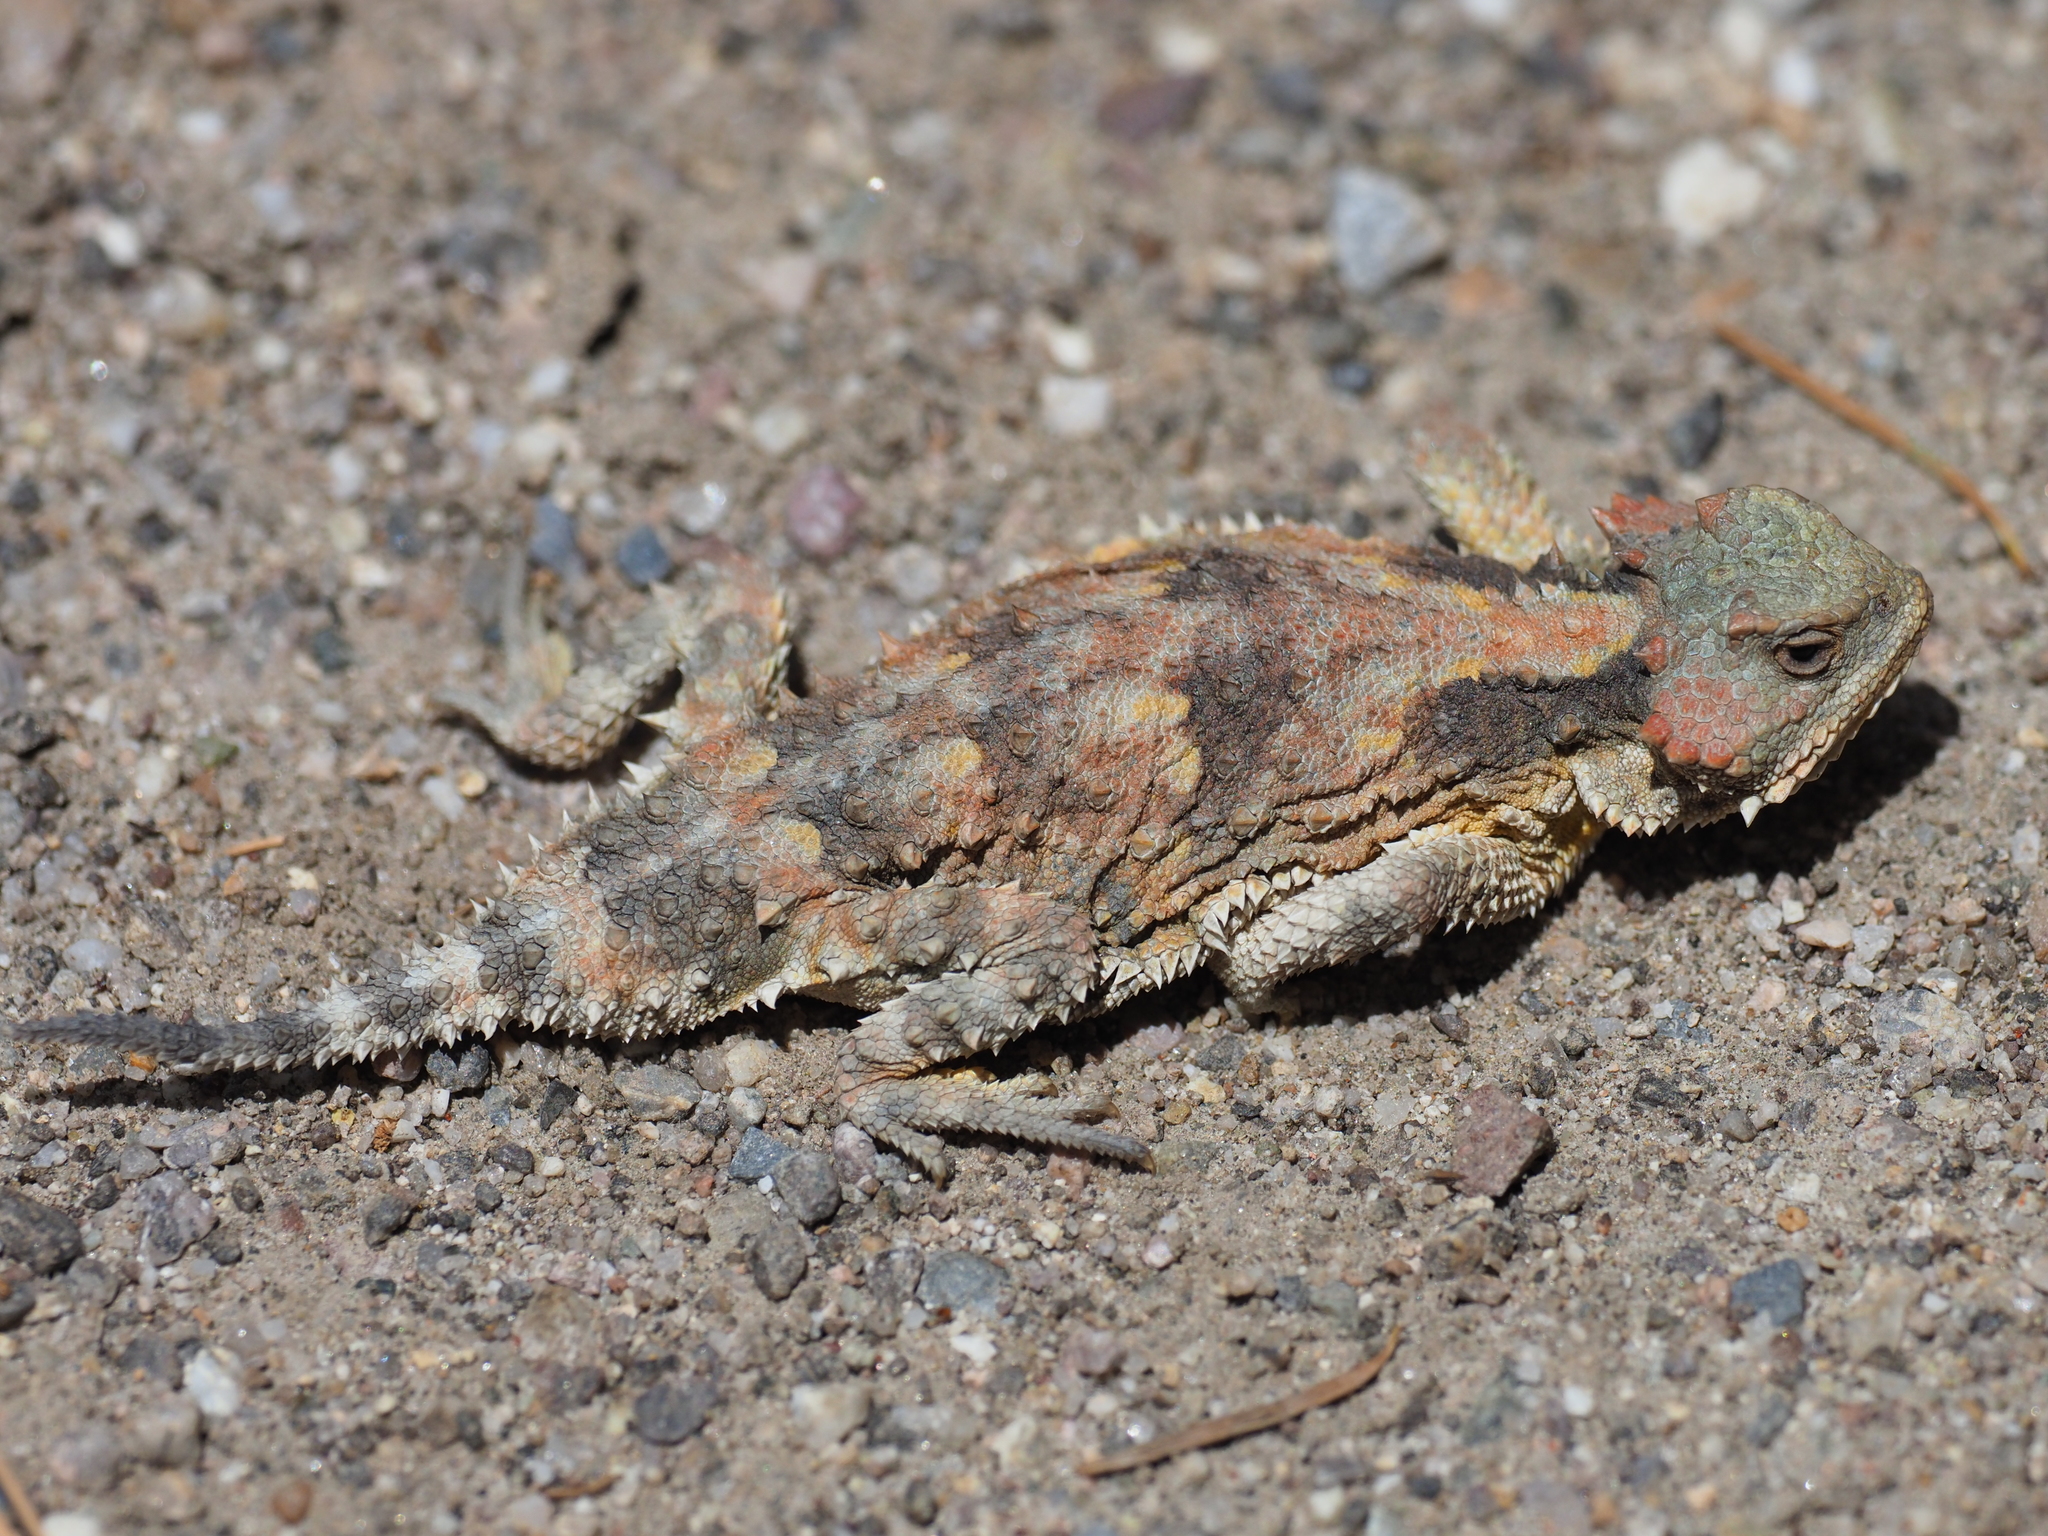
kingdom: Animalia
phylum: Chordata
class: Squamata
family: Phrynosomatidae
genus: Phrynosoma
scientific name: Phrynosoma hernandesi
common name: Greater short-horned lizard
